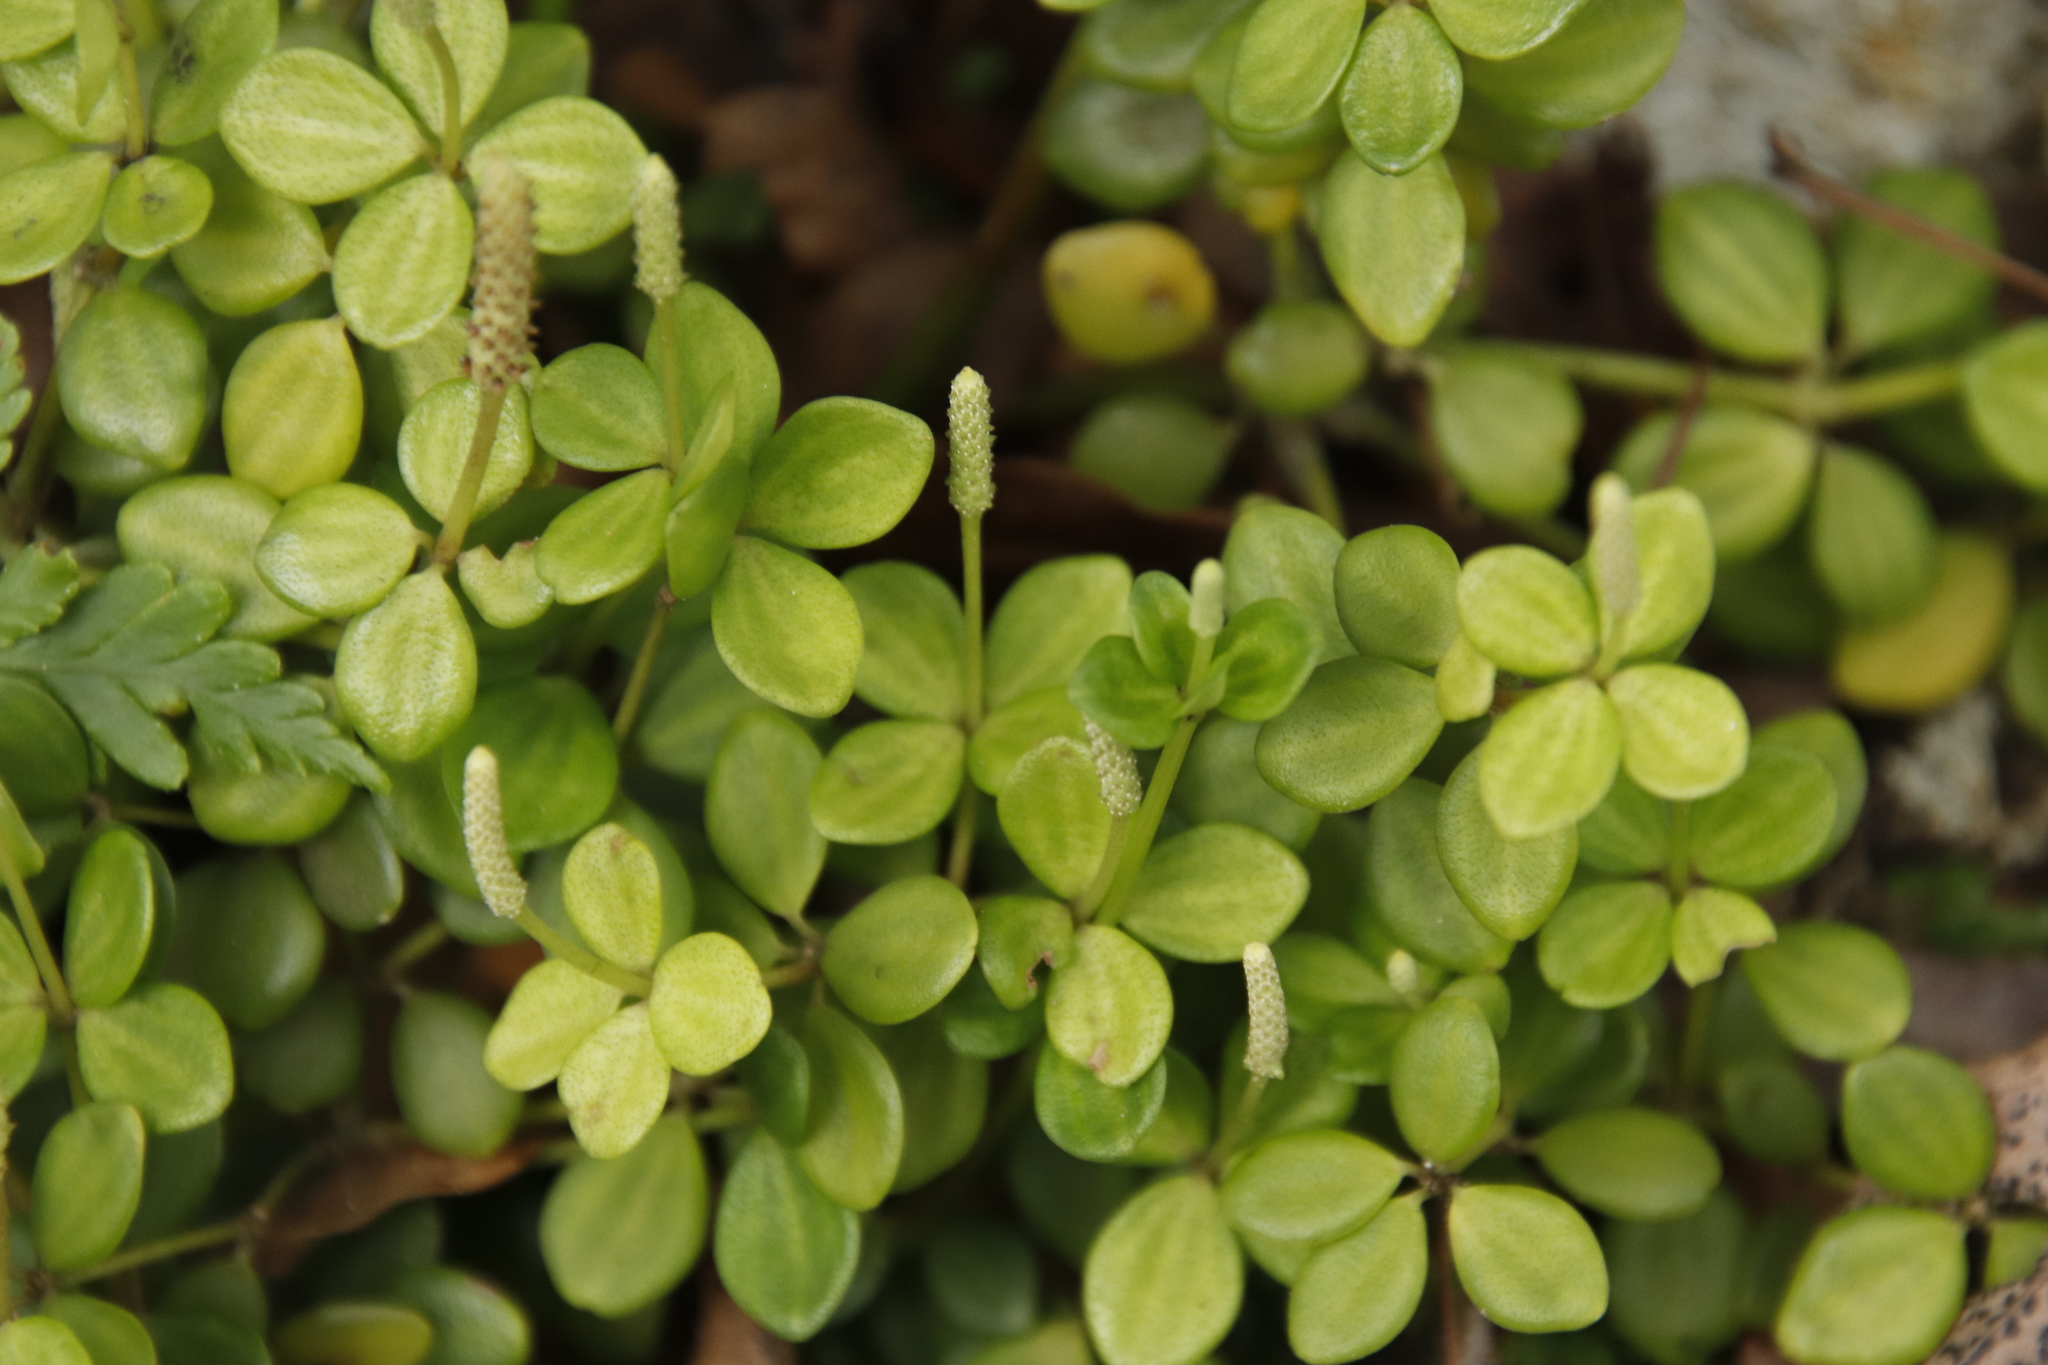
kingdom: Plantae
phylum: Tracheophyta
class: Magnoliopsida
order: Piperales
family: Piperaceae
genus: Peperomia
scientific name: Peperomia tetraphylla
